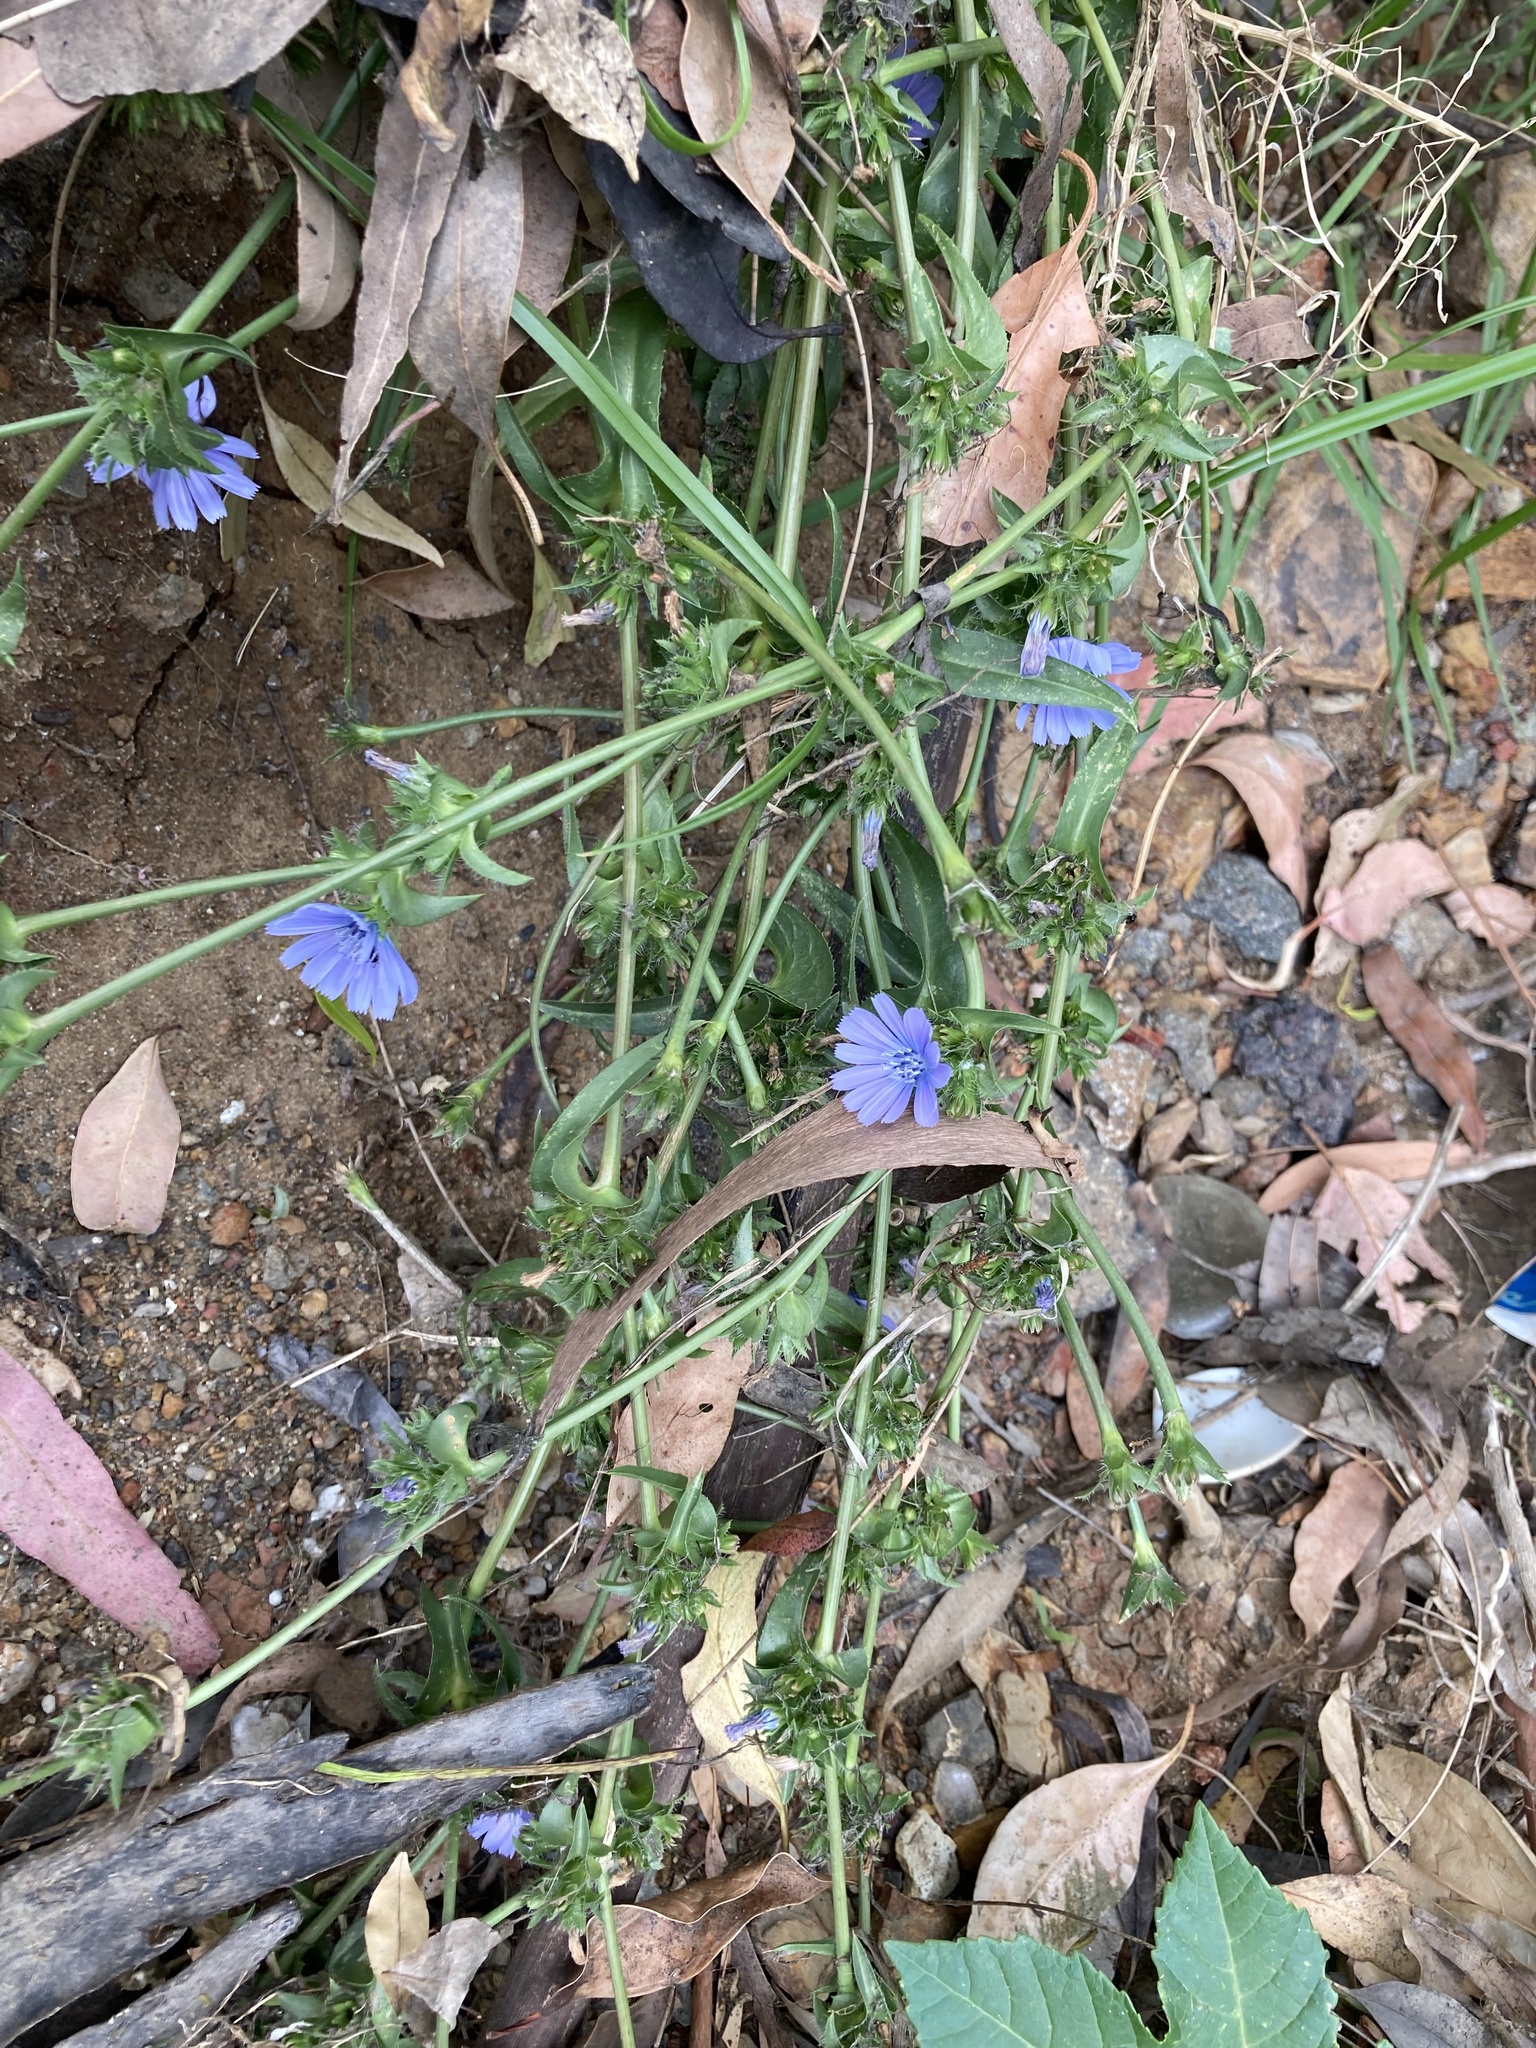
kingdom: Plantae
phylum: Tracheophyta
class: Magnoliopsida
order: Asterales
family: Asteraceae
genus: Cichorium
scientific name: Cichorium intybus
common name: Chicory
